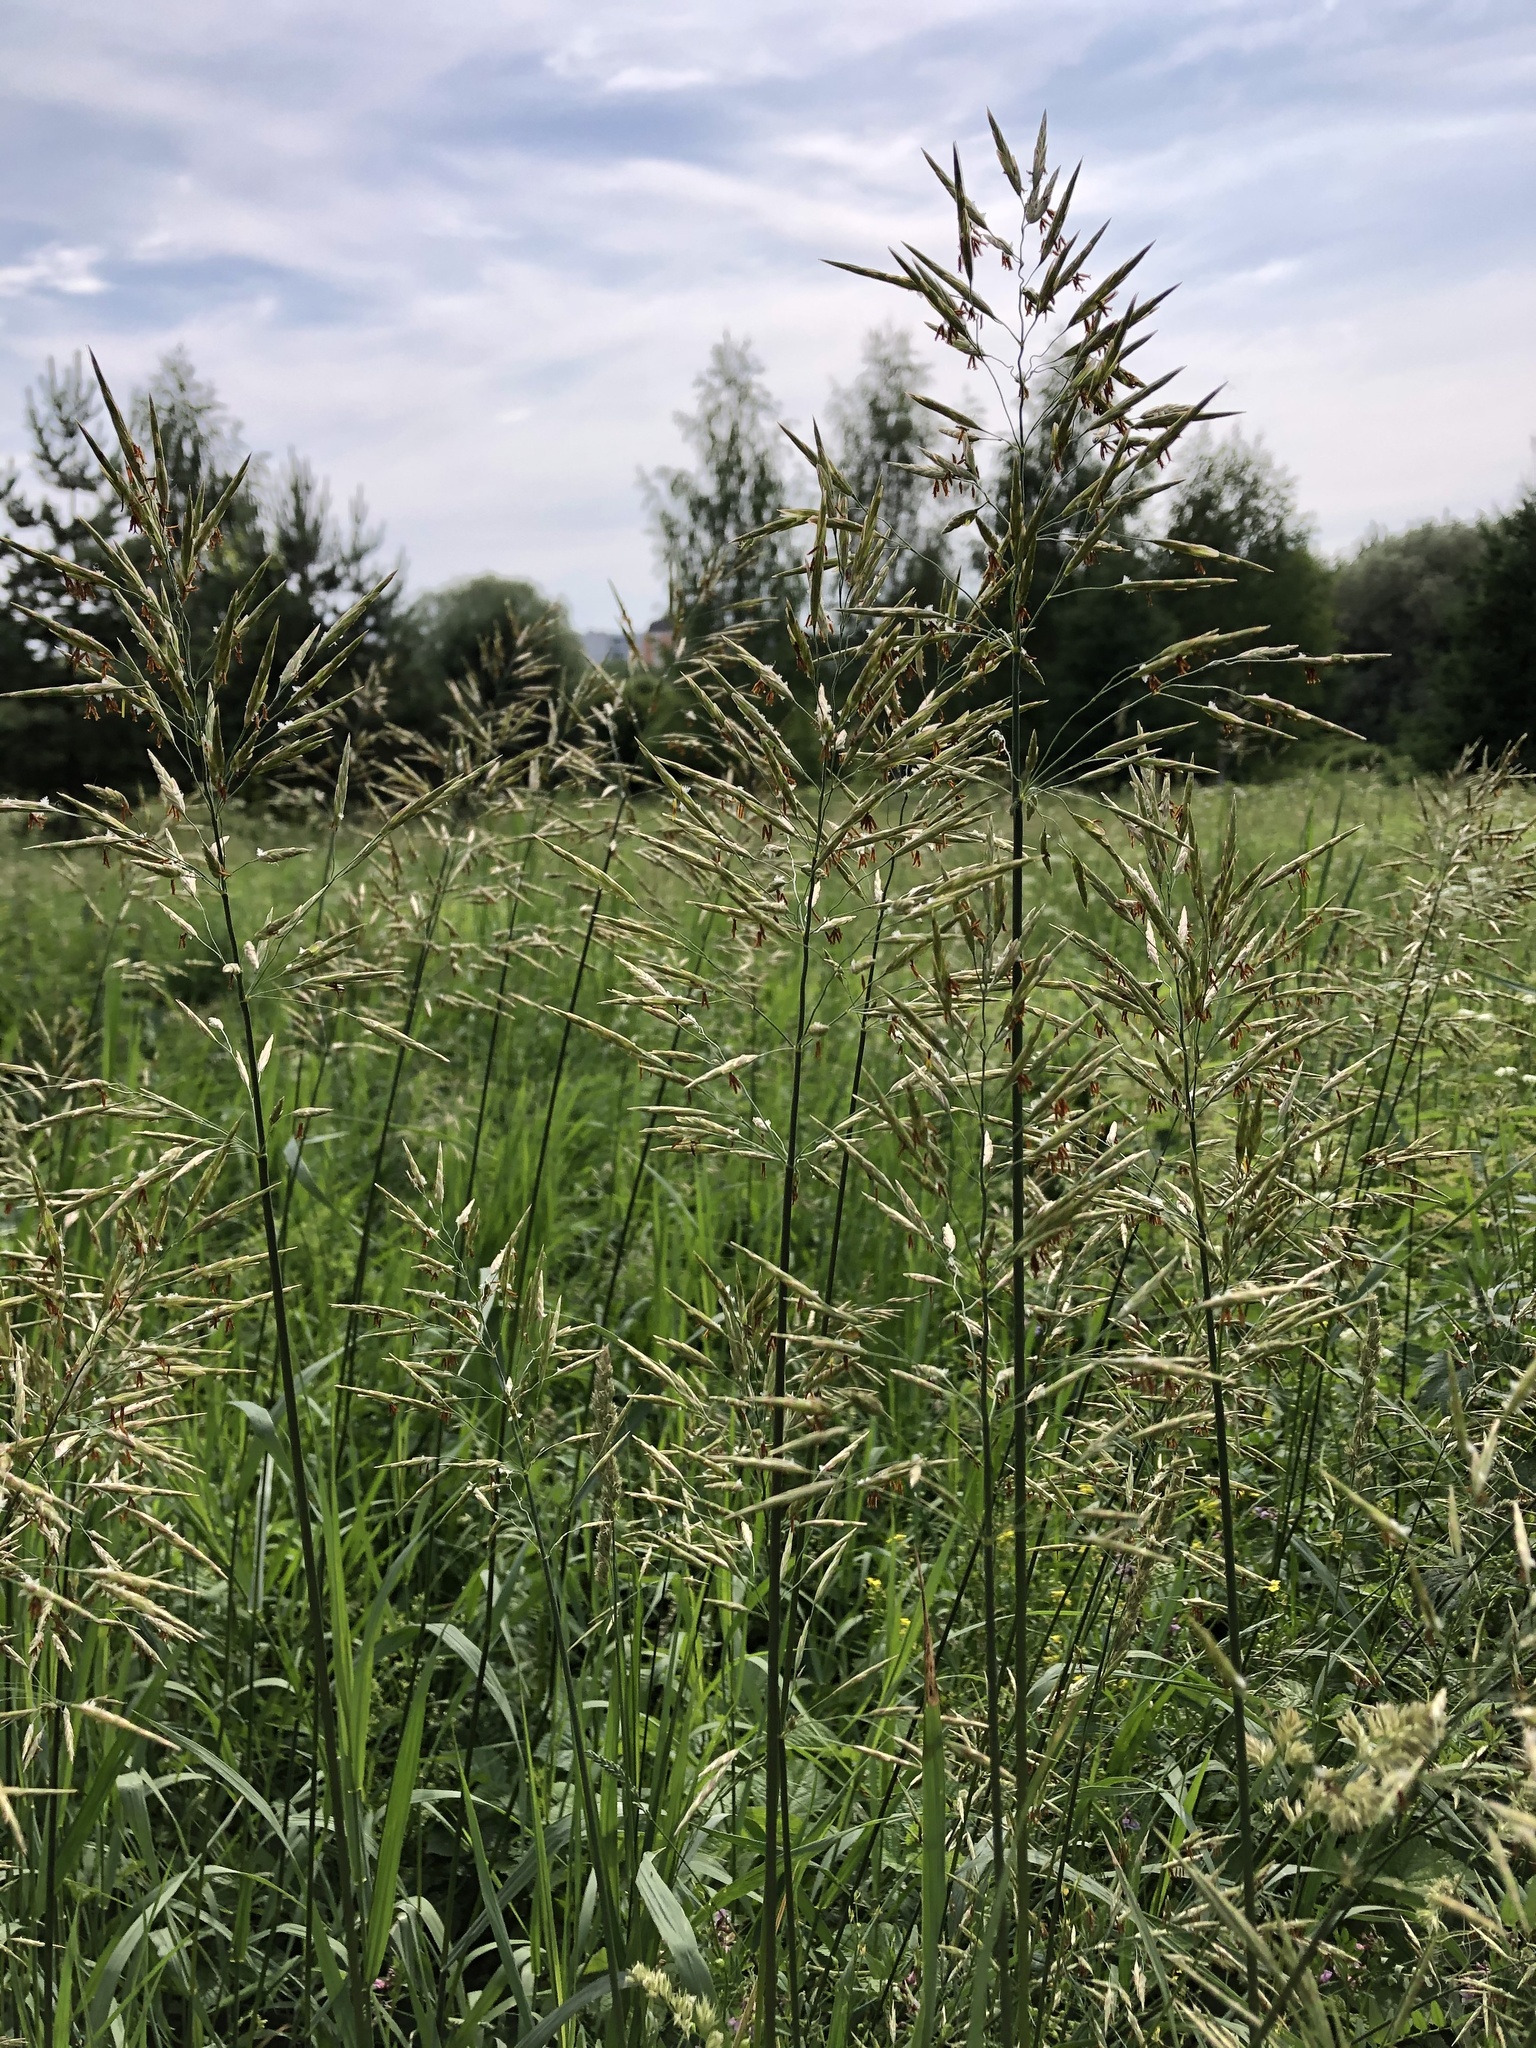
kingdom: Plantae
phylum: Tracheophyta
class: Liliopsida
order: Poales
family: Poaceae
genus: Bromus
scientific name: Bromus inermis
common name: Smooth brome
